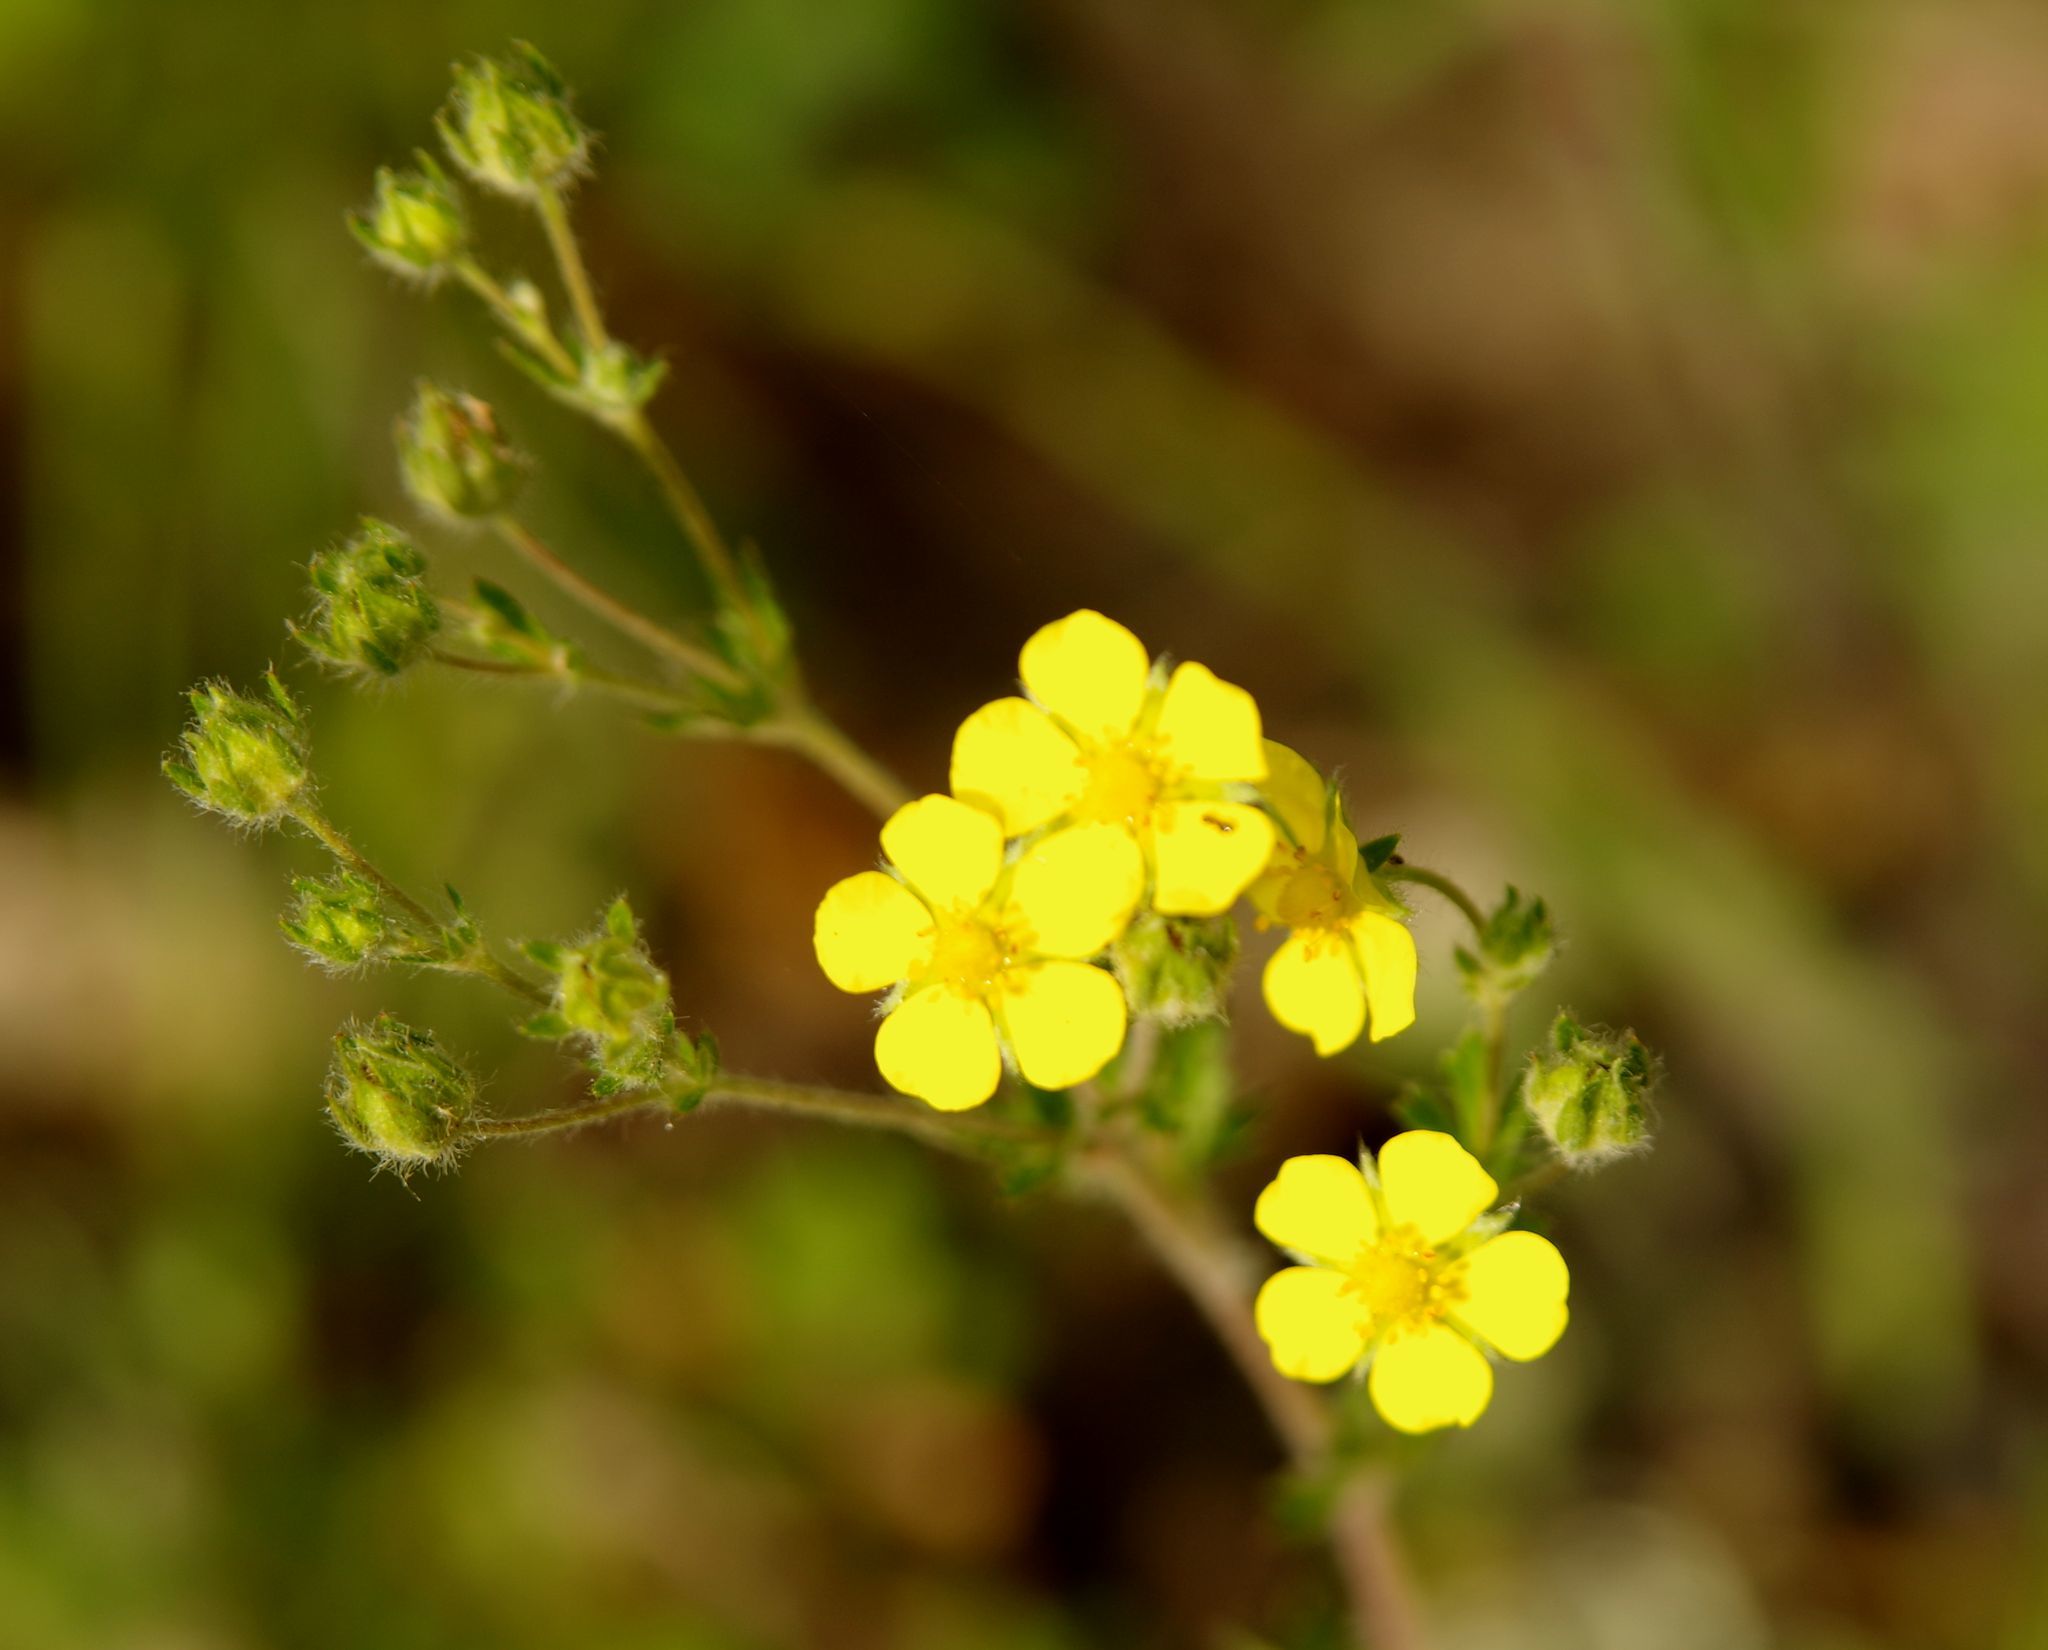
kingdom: Plantae
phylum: Tracheophyta
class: Magnoliopsida
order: Rosales
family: Rosaceae
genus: Potentilla
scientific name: Potentilla inclinata
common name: Grey cinquefoil
